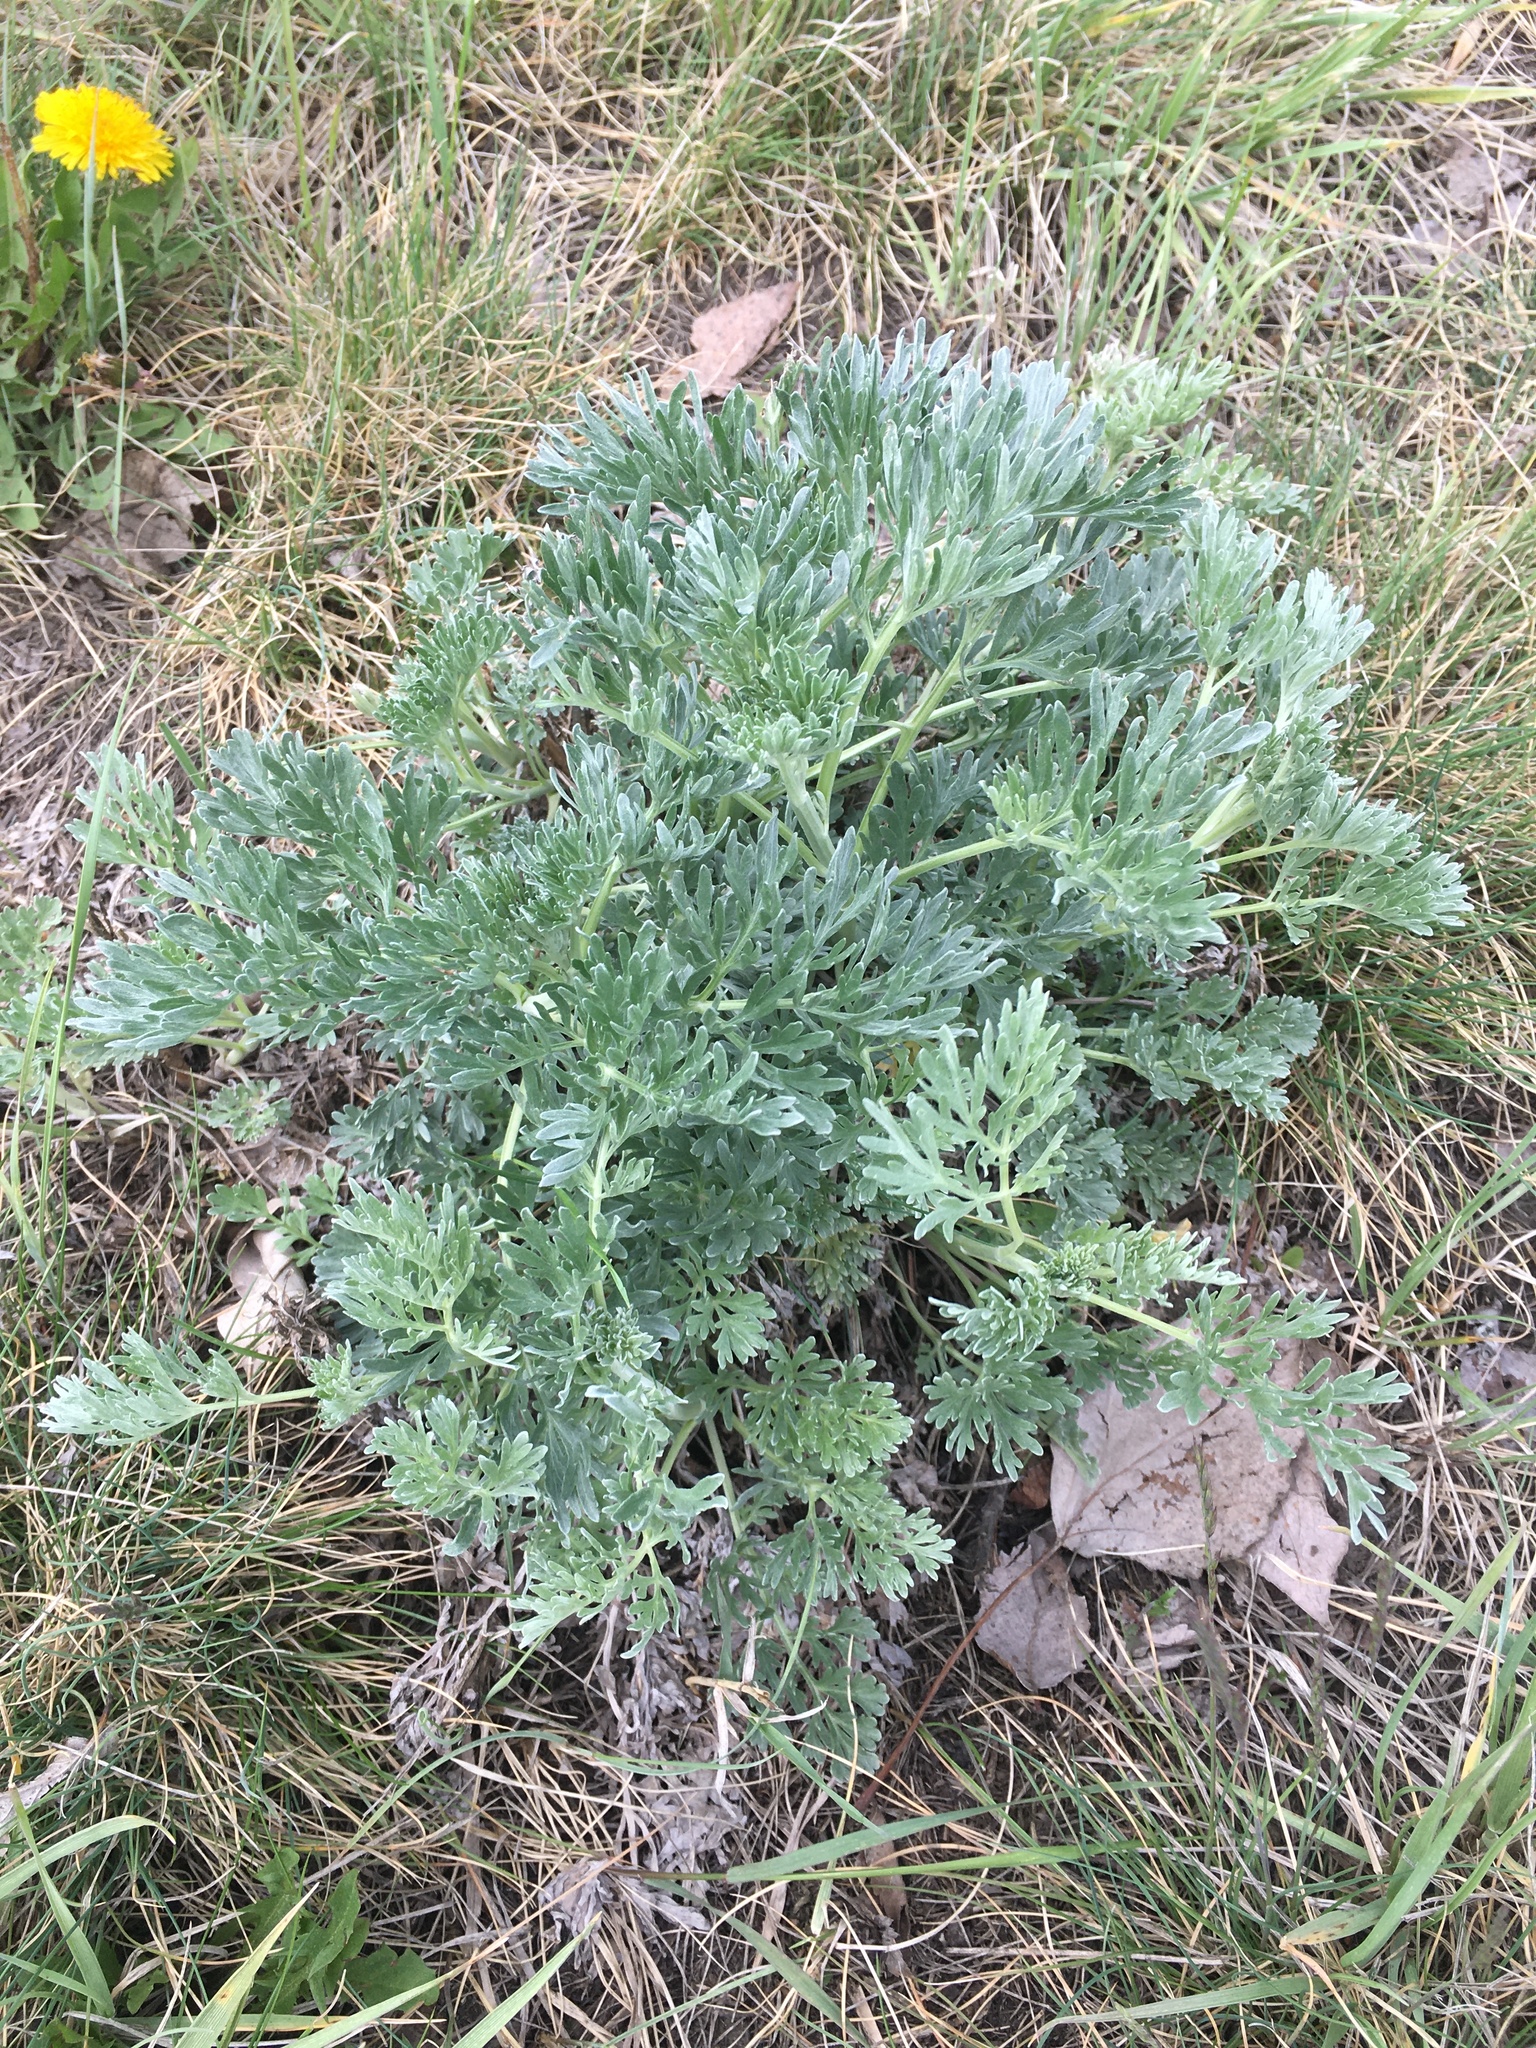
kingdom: Plantae
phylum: Tracheophyta
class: Magnoliopsida
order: Asterales
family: Asteraceae
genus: Artemisia
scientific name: Artemisia absinthium
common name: Wormwood
